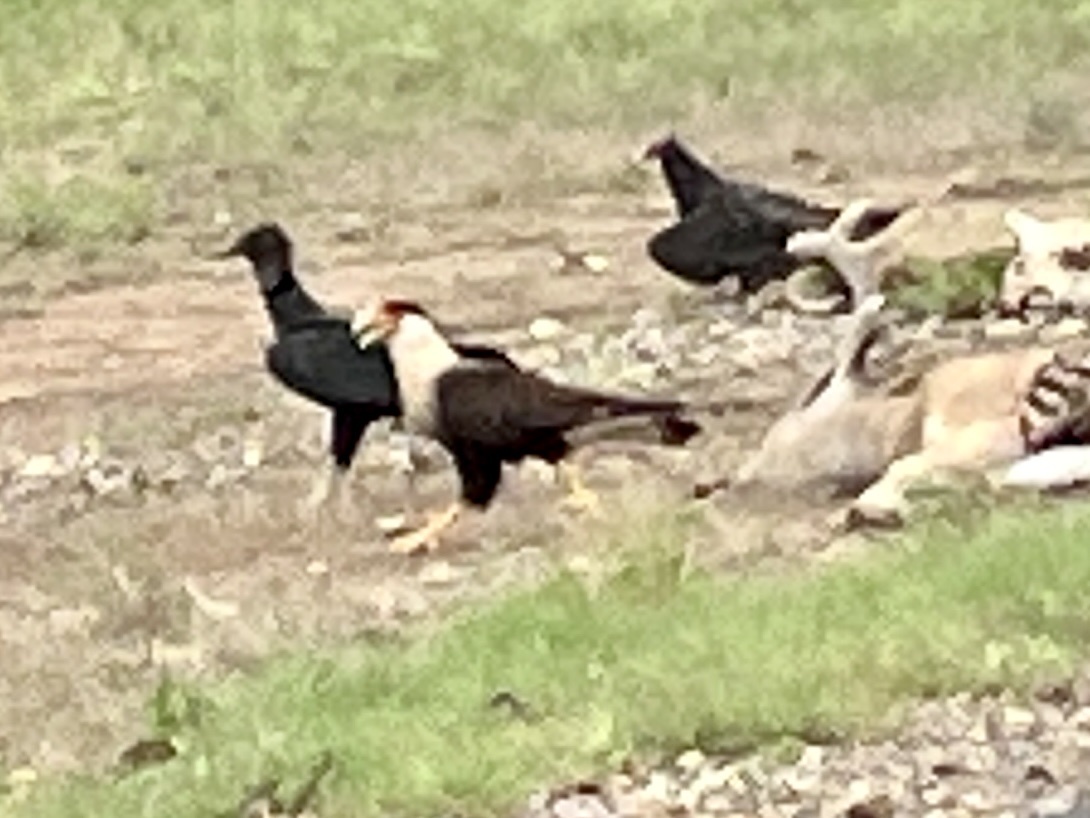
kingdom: Animalia
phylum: Chordata
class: Aves
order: Falconiformes
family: Falconidae
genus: Caracara
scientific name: Caracara plancus
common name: Southern caracara
